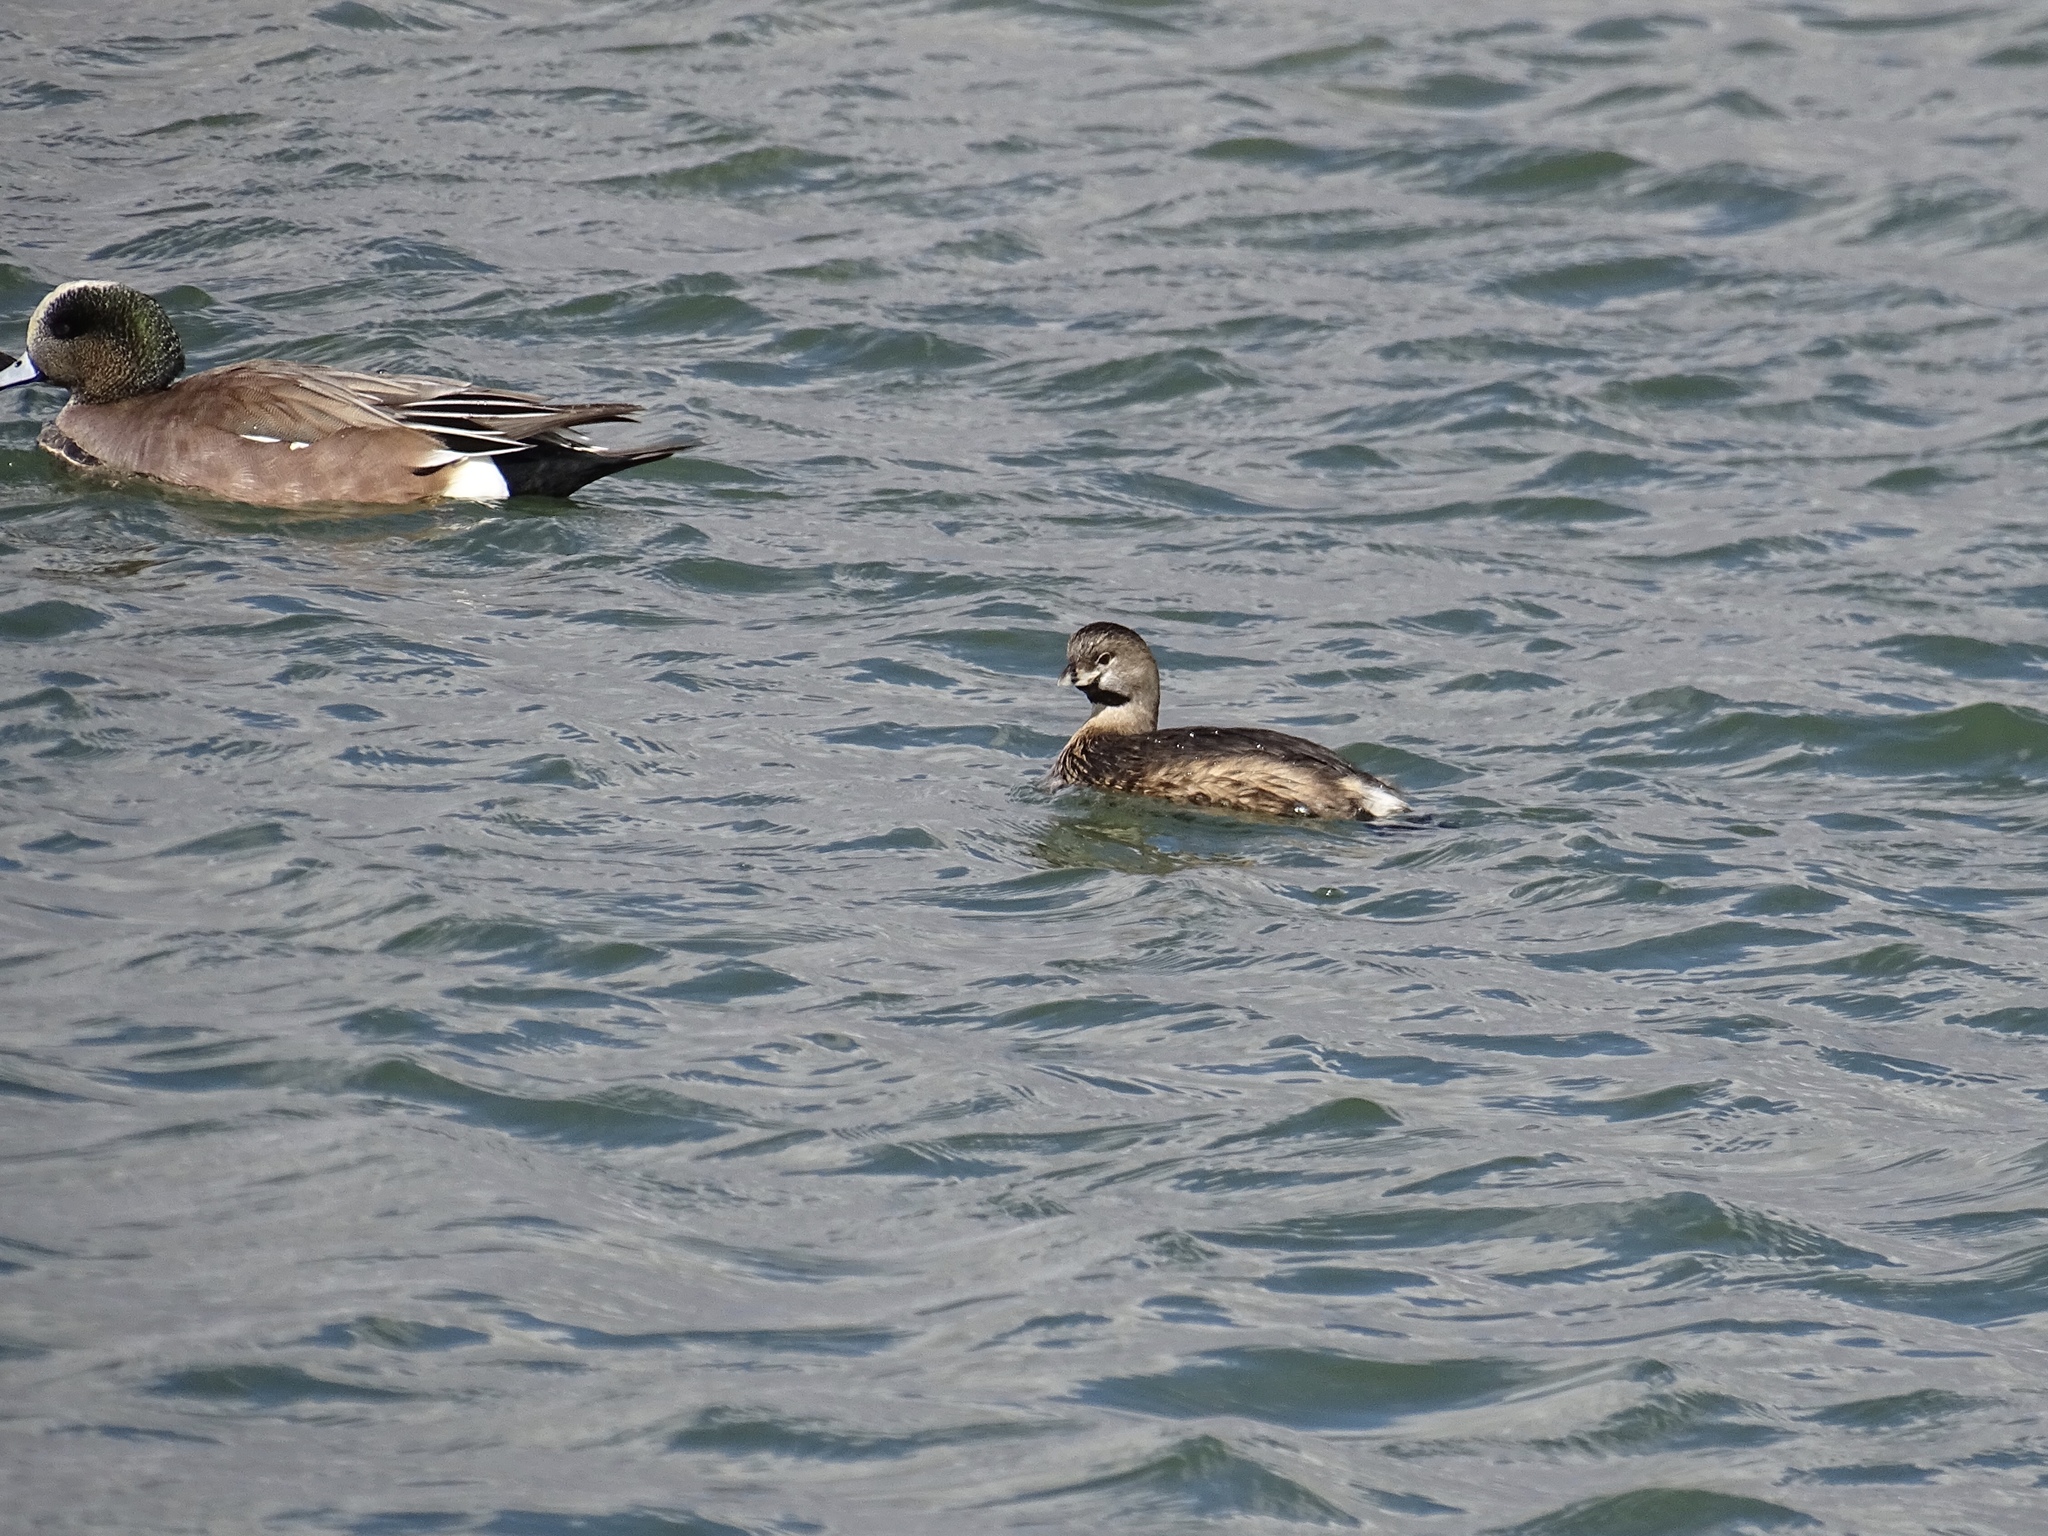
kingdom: Animalia
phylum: Chordata
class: Aves
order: Podicipediformes
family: Podicipedidae
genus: Podilymbus
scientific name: Podilymbus podiceps
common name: Pied-billed grebe
